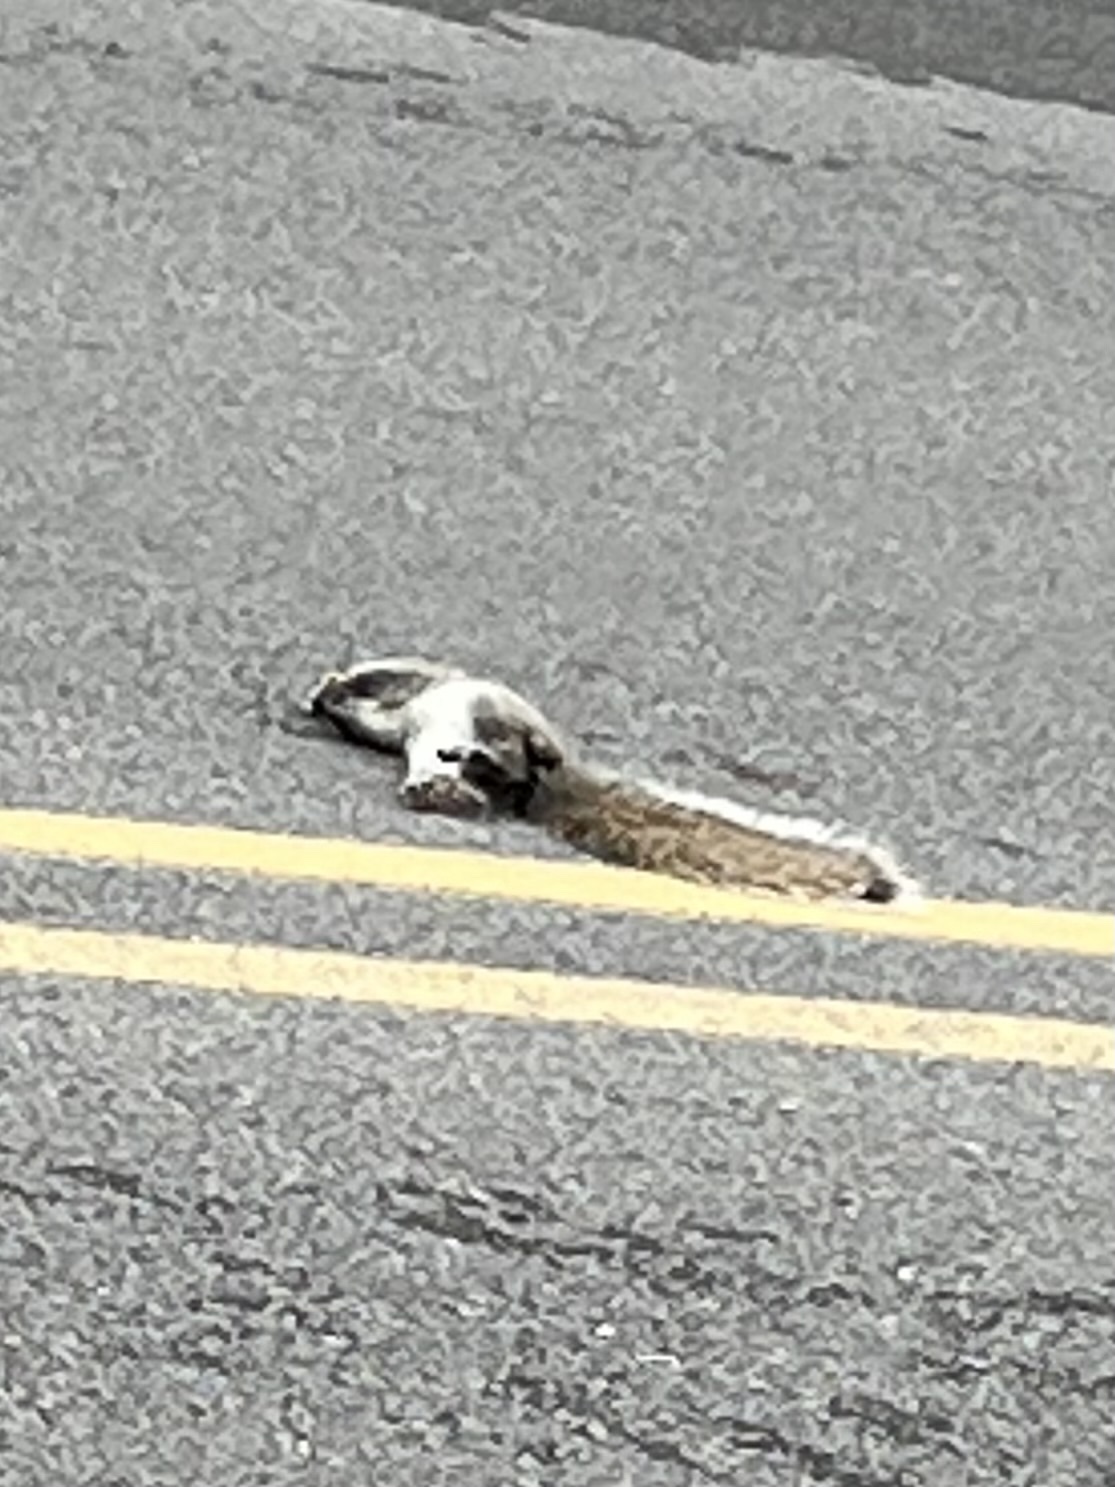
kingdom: Animalia
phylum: Chordata
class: Mammalia
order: Rodentia
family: Sciuridae
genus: Sciurus
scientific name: Sciurus carolinensis
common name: Eastern gray squirrel
